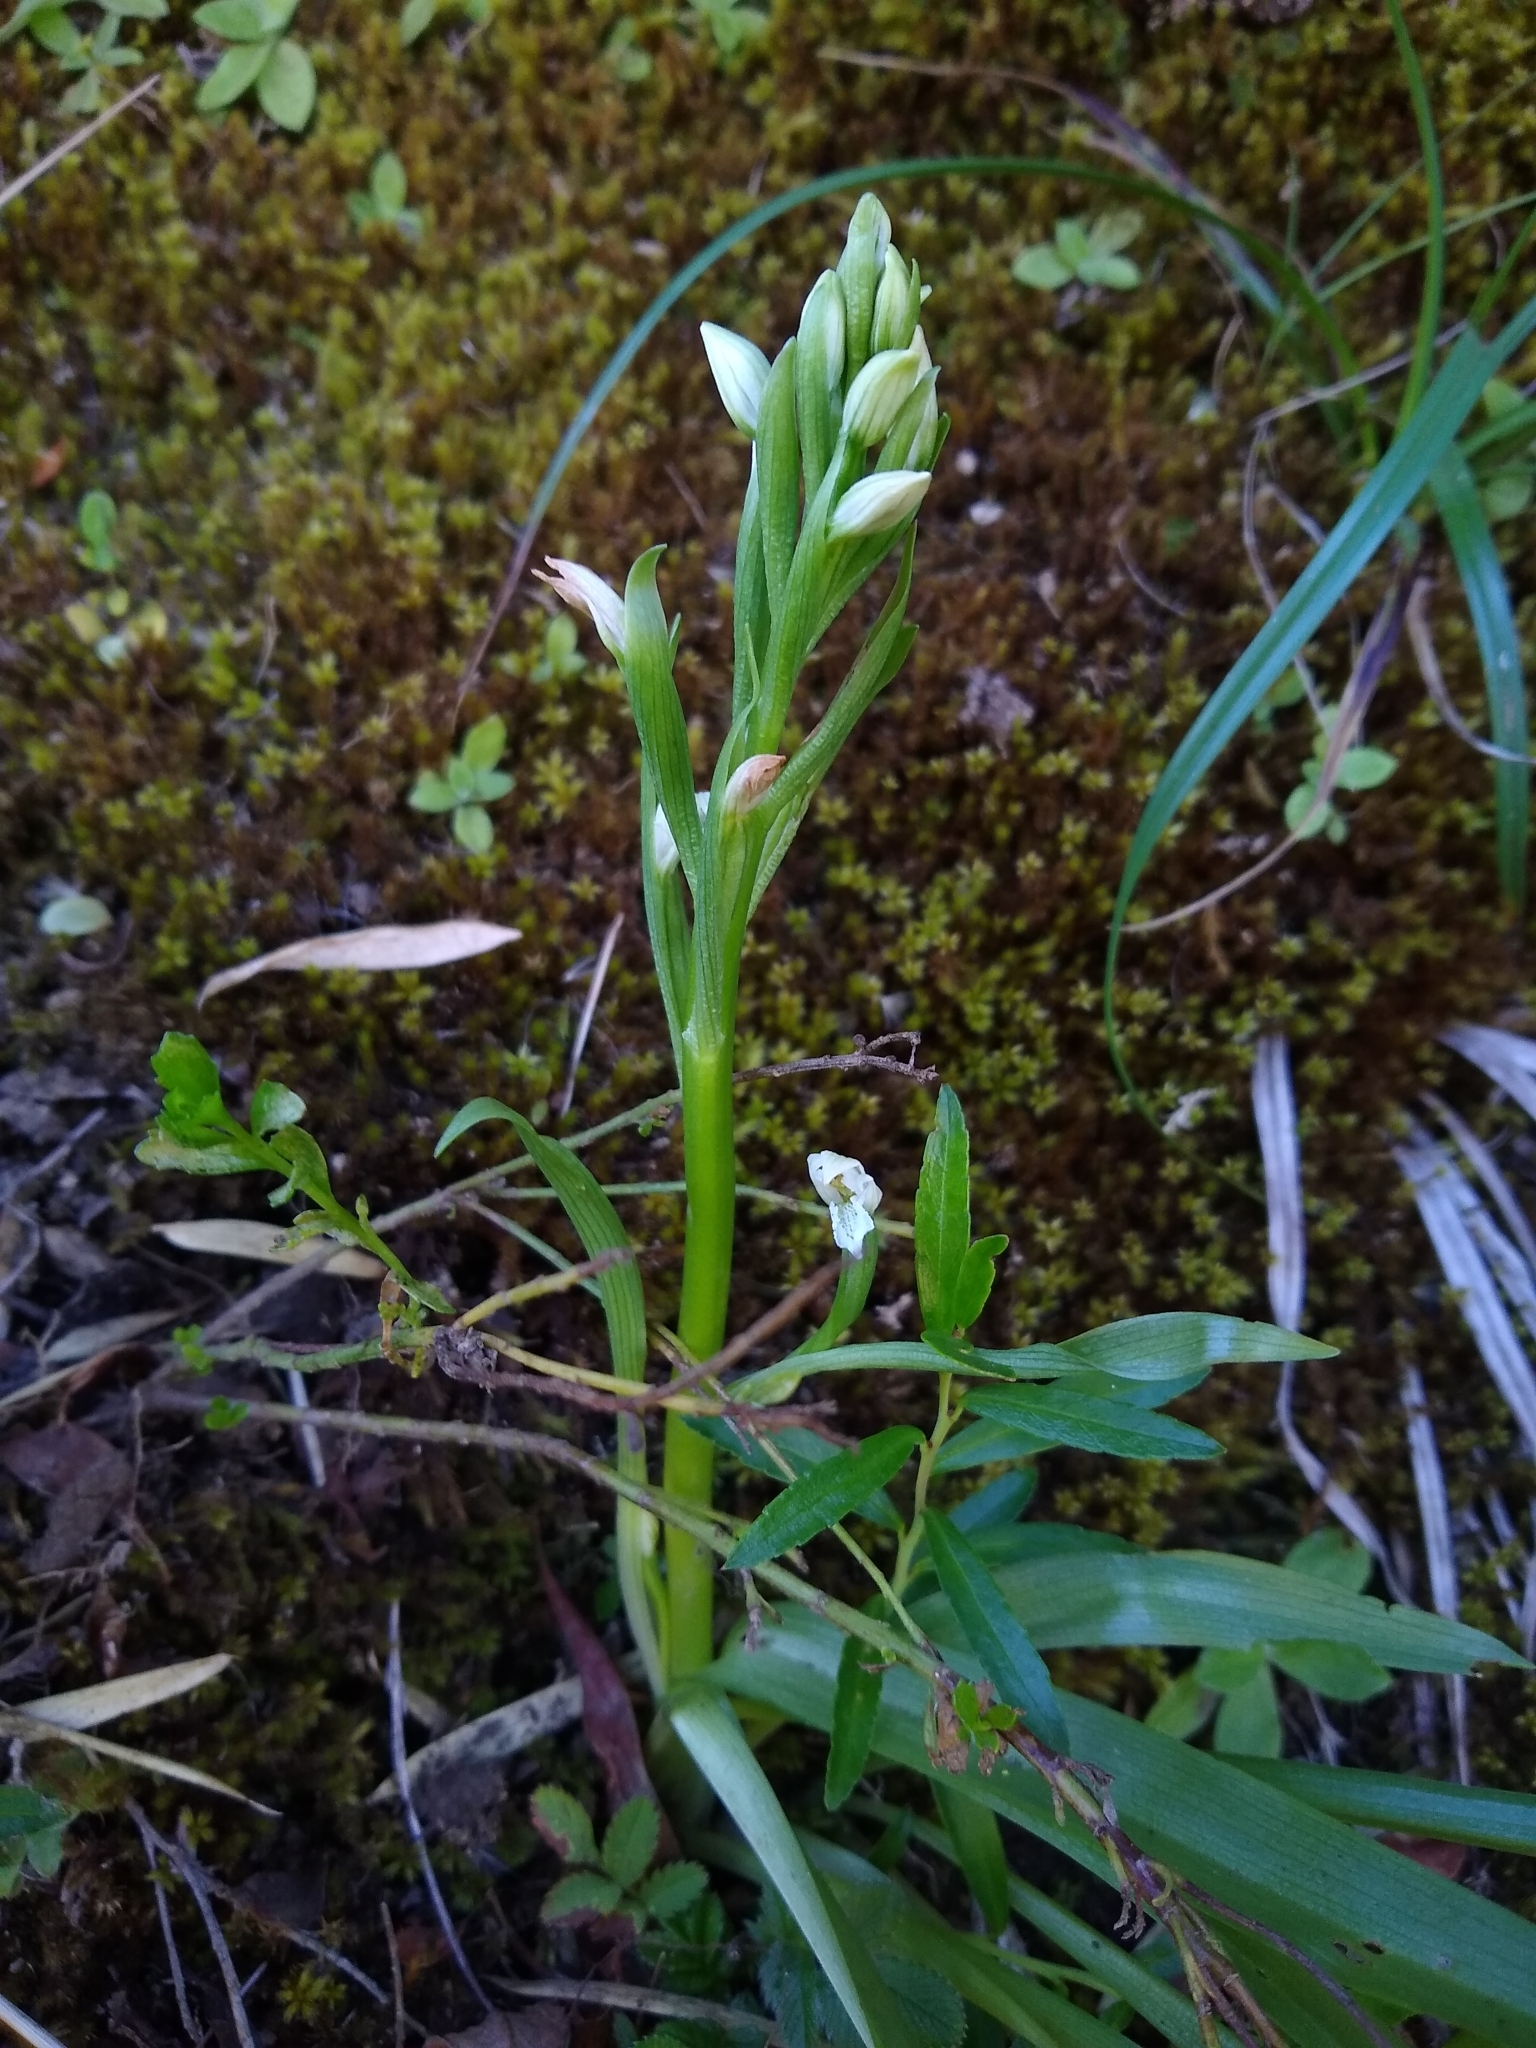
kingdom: Plantae
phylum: Tracheophyta
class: Liliopsida
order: Asparagales
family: Orchidaceae
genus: Gavilea
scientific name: Gavilea chica
